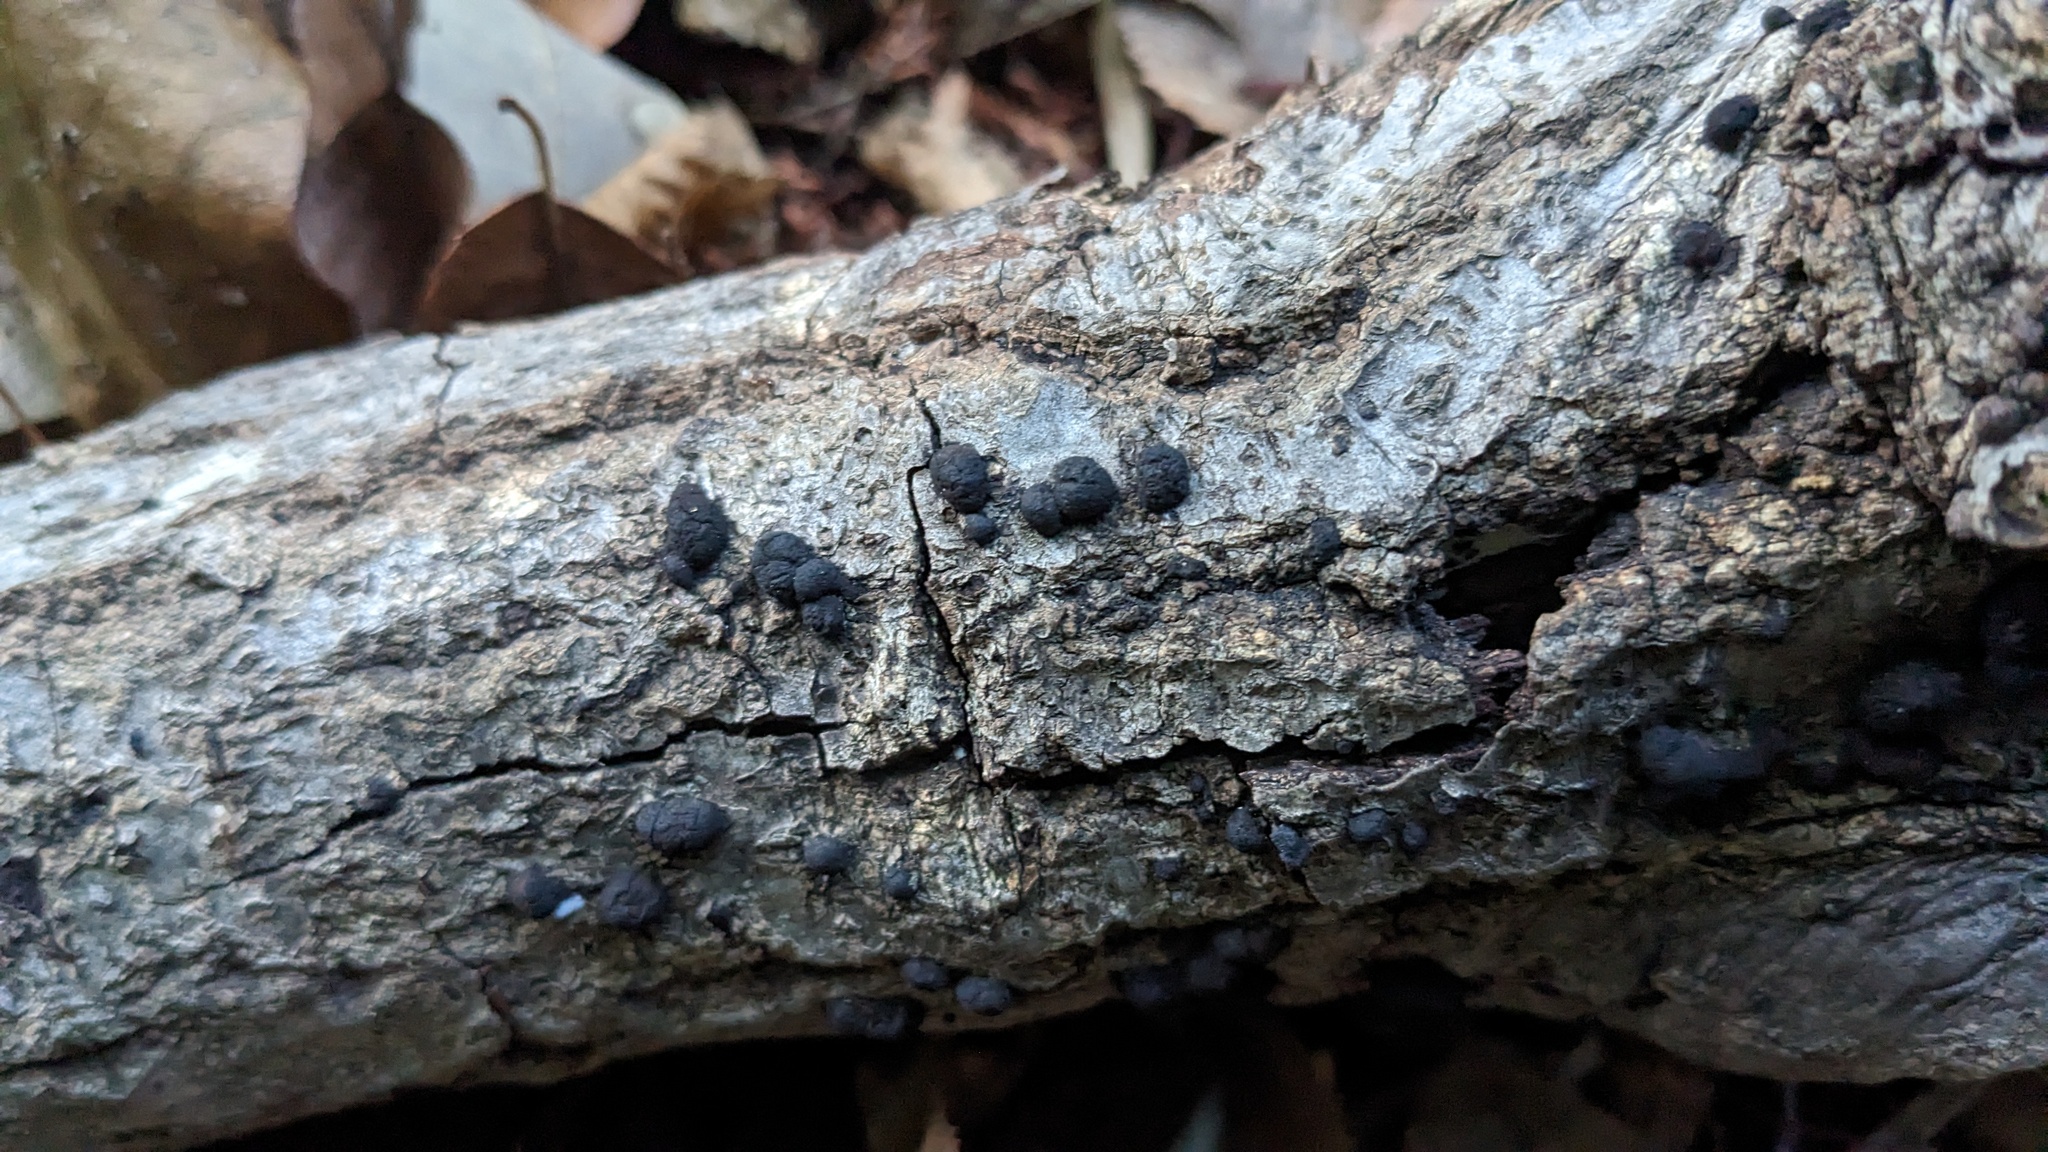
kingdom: Fungi
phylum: Ascomycota
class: Sordariomycetes
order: Xylariales
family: Hypoxylaceae
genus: Annulohypoxylon
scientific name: Annulohypoxylon truncatum
